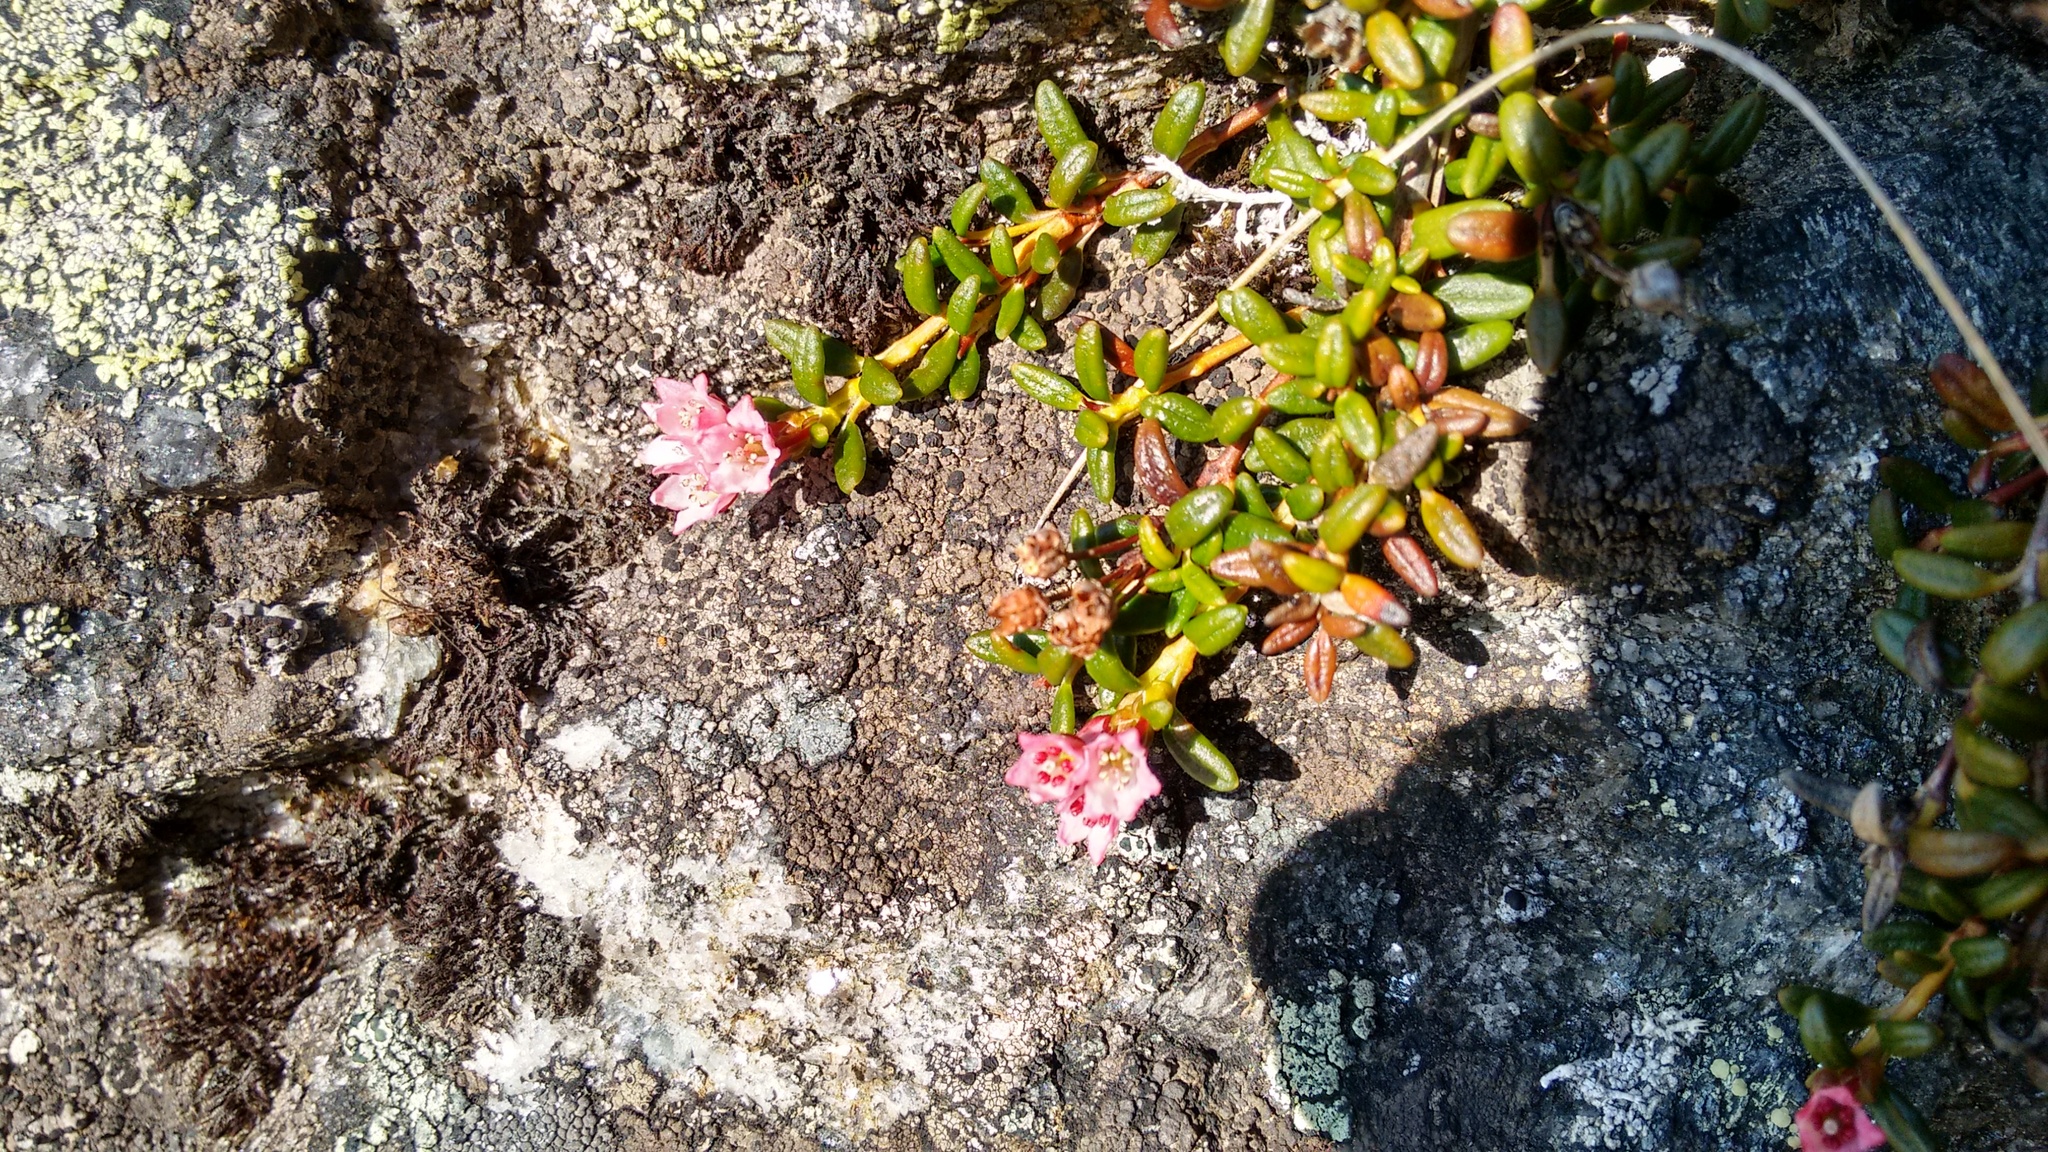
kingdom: Plantae
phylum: Tracheophyta
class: Magnoliopsida
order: Ericales
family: Ericaceae
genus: Kalmia
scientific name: Kalmia procumbens
